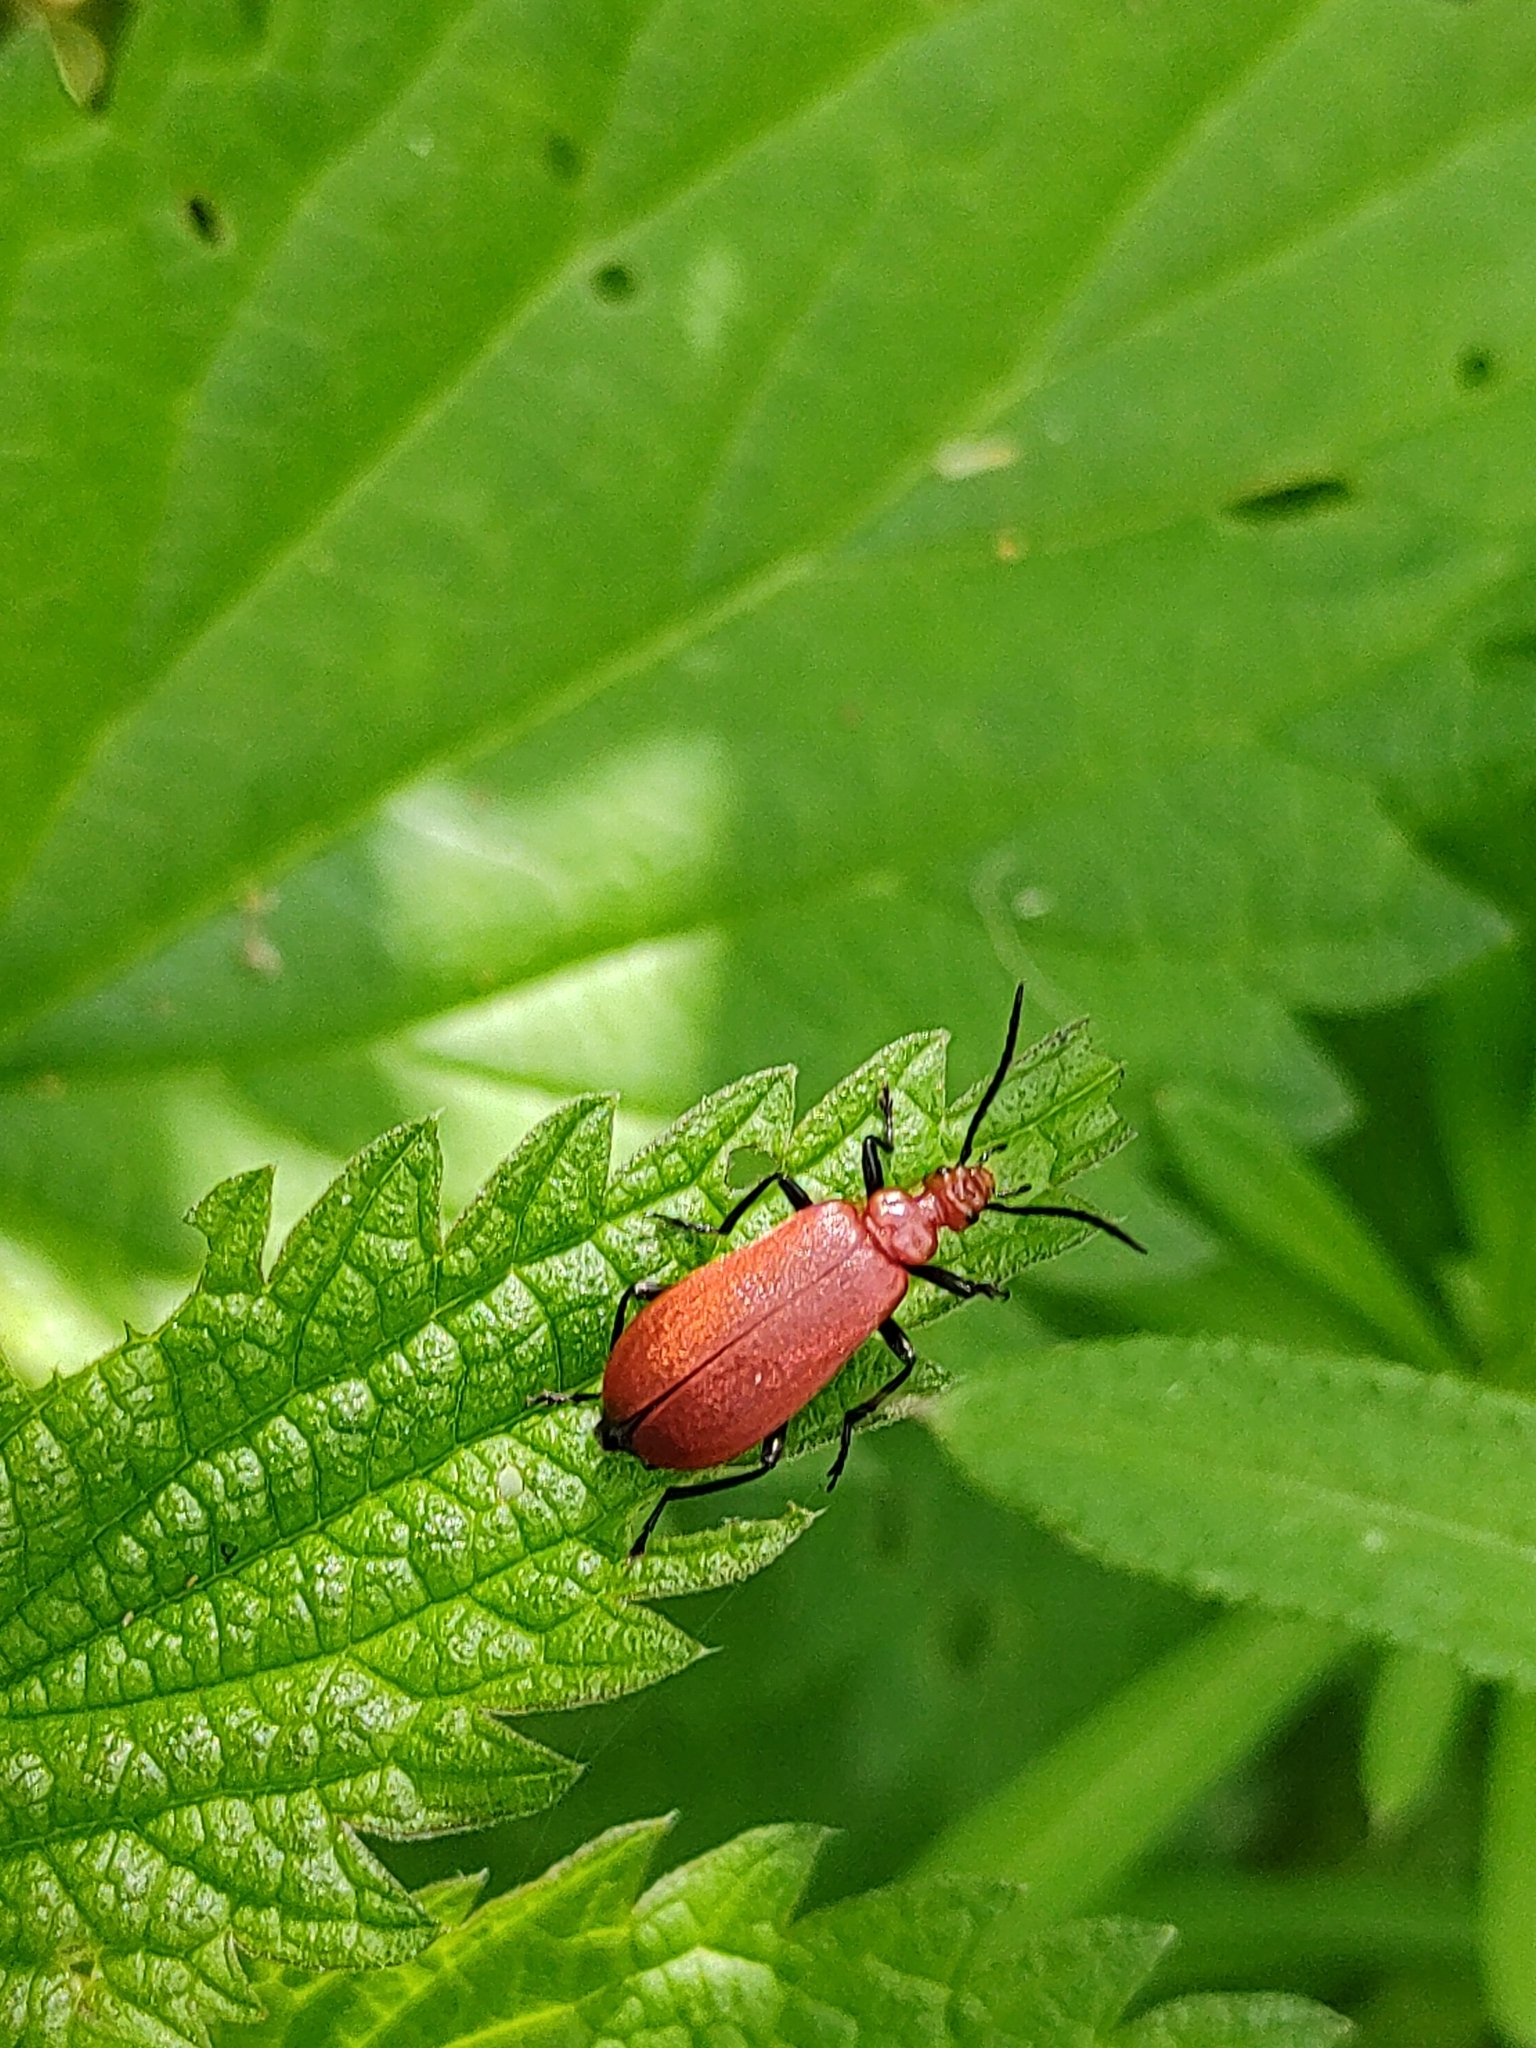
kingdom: Animalia
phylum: Arthropoda
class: Insecta
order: Coleoptera
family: Pyrochroidae
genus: Pyrochroa
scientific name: Pyrochroa serraticornis
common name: Red-headed cardinal beetle
